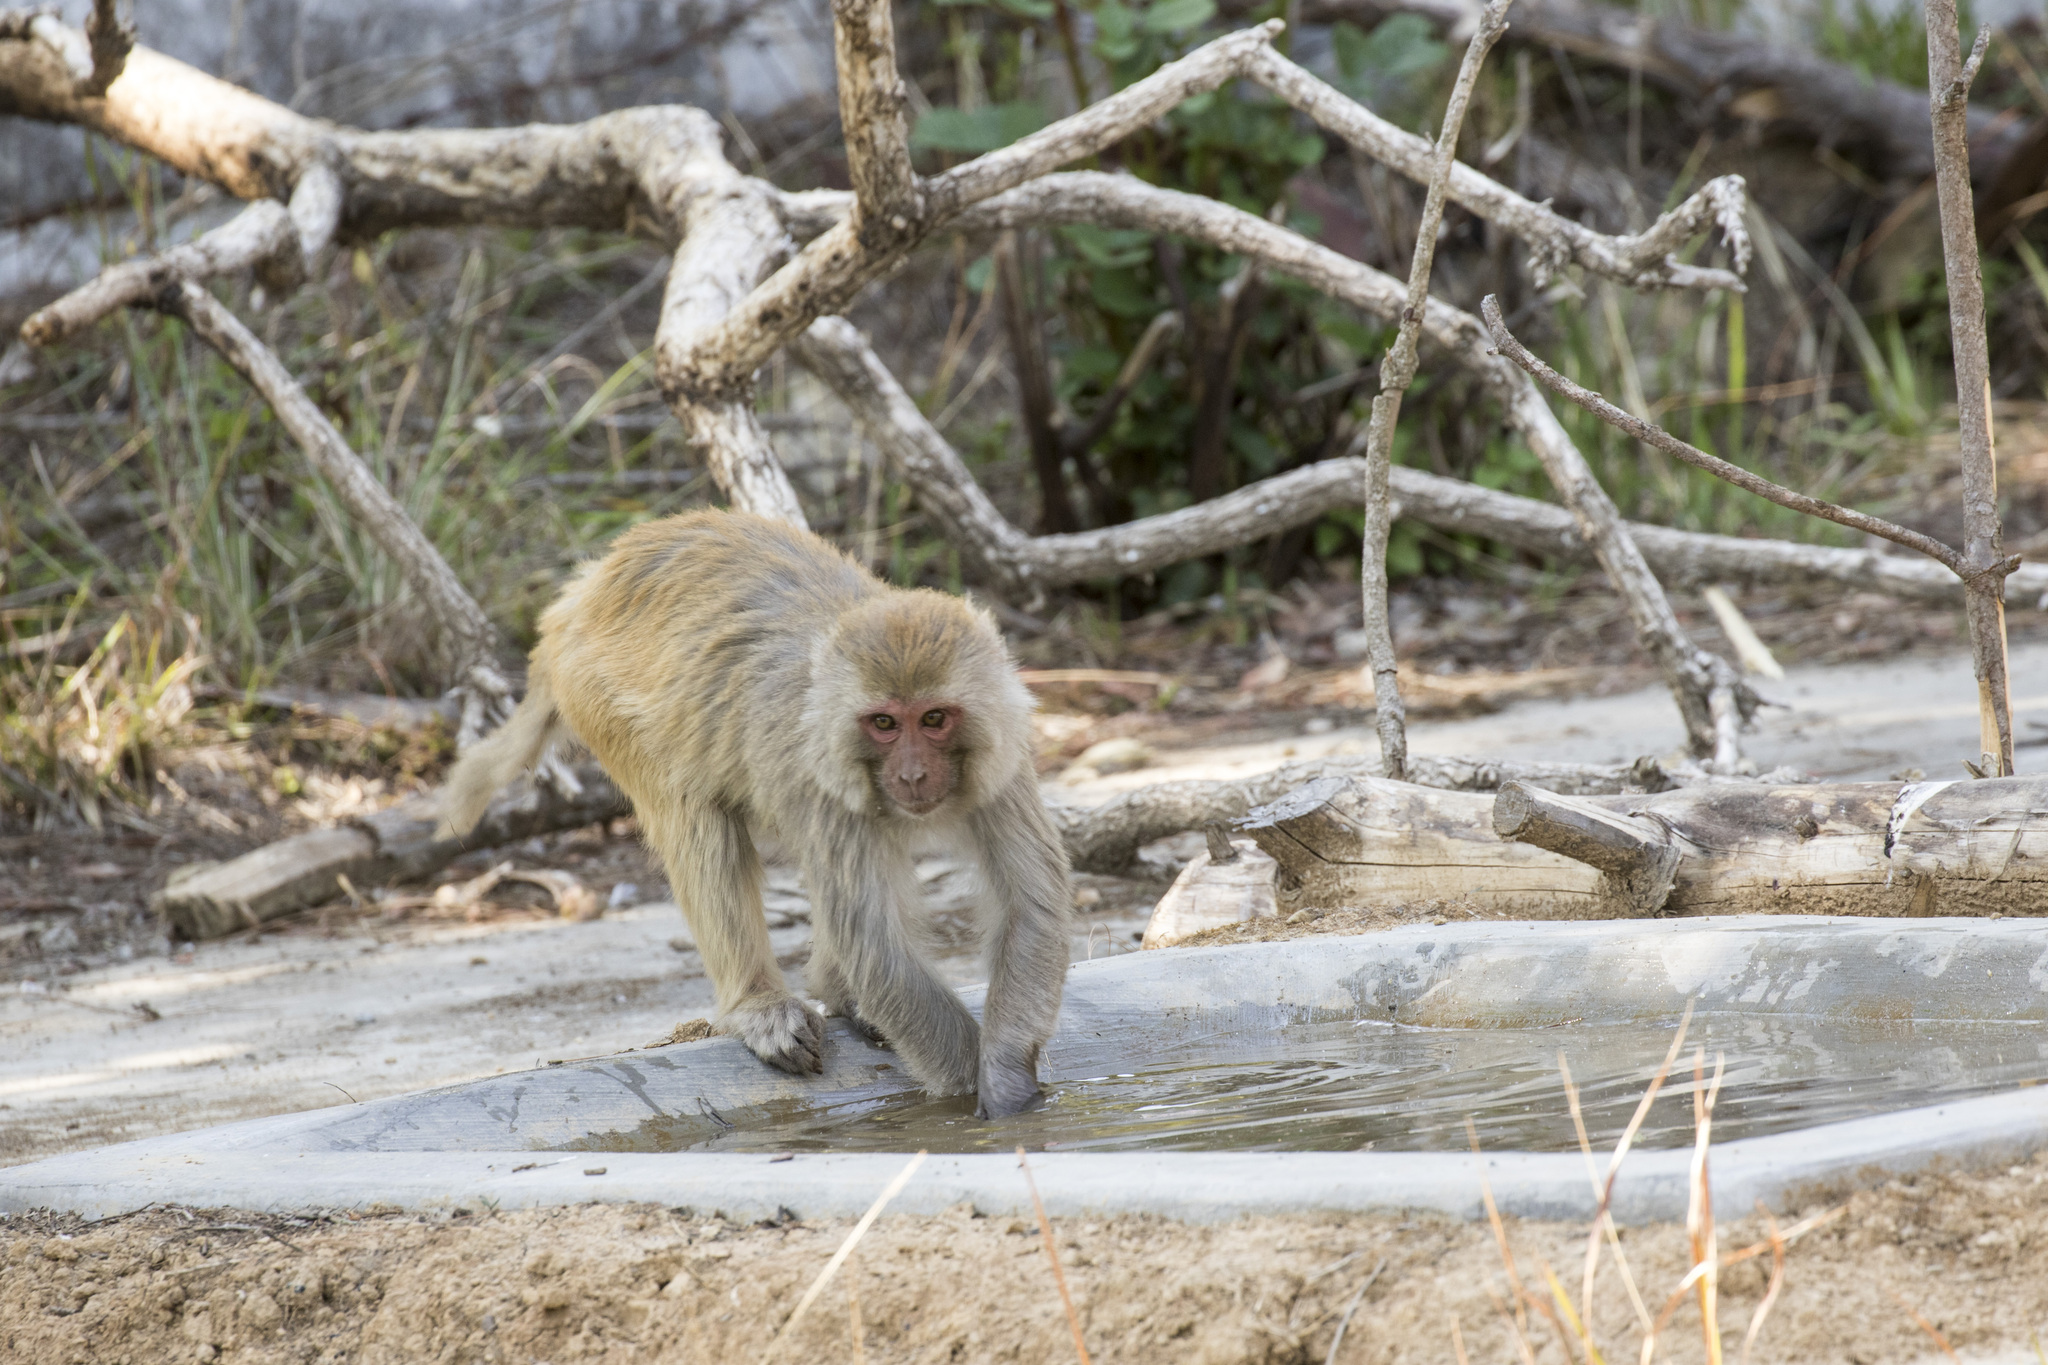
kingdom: Animalia
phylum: Chordata
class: Mammalia
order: Primates
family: Cercopithecidae
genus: Macaca
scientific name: Macaca mulatta
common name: Rhesus monkey
